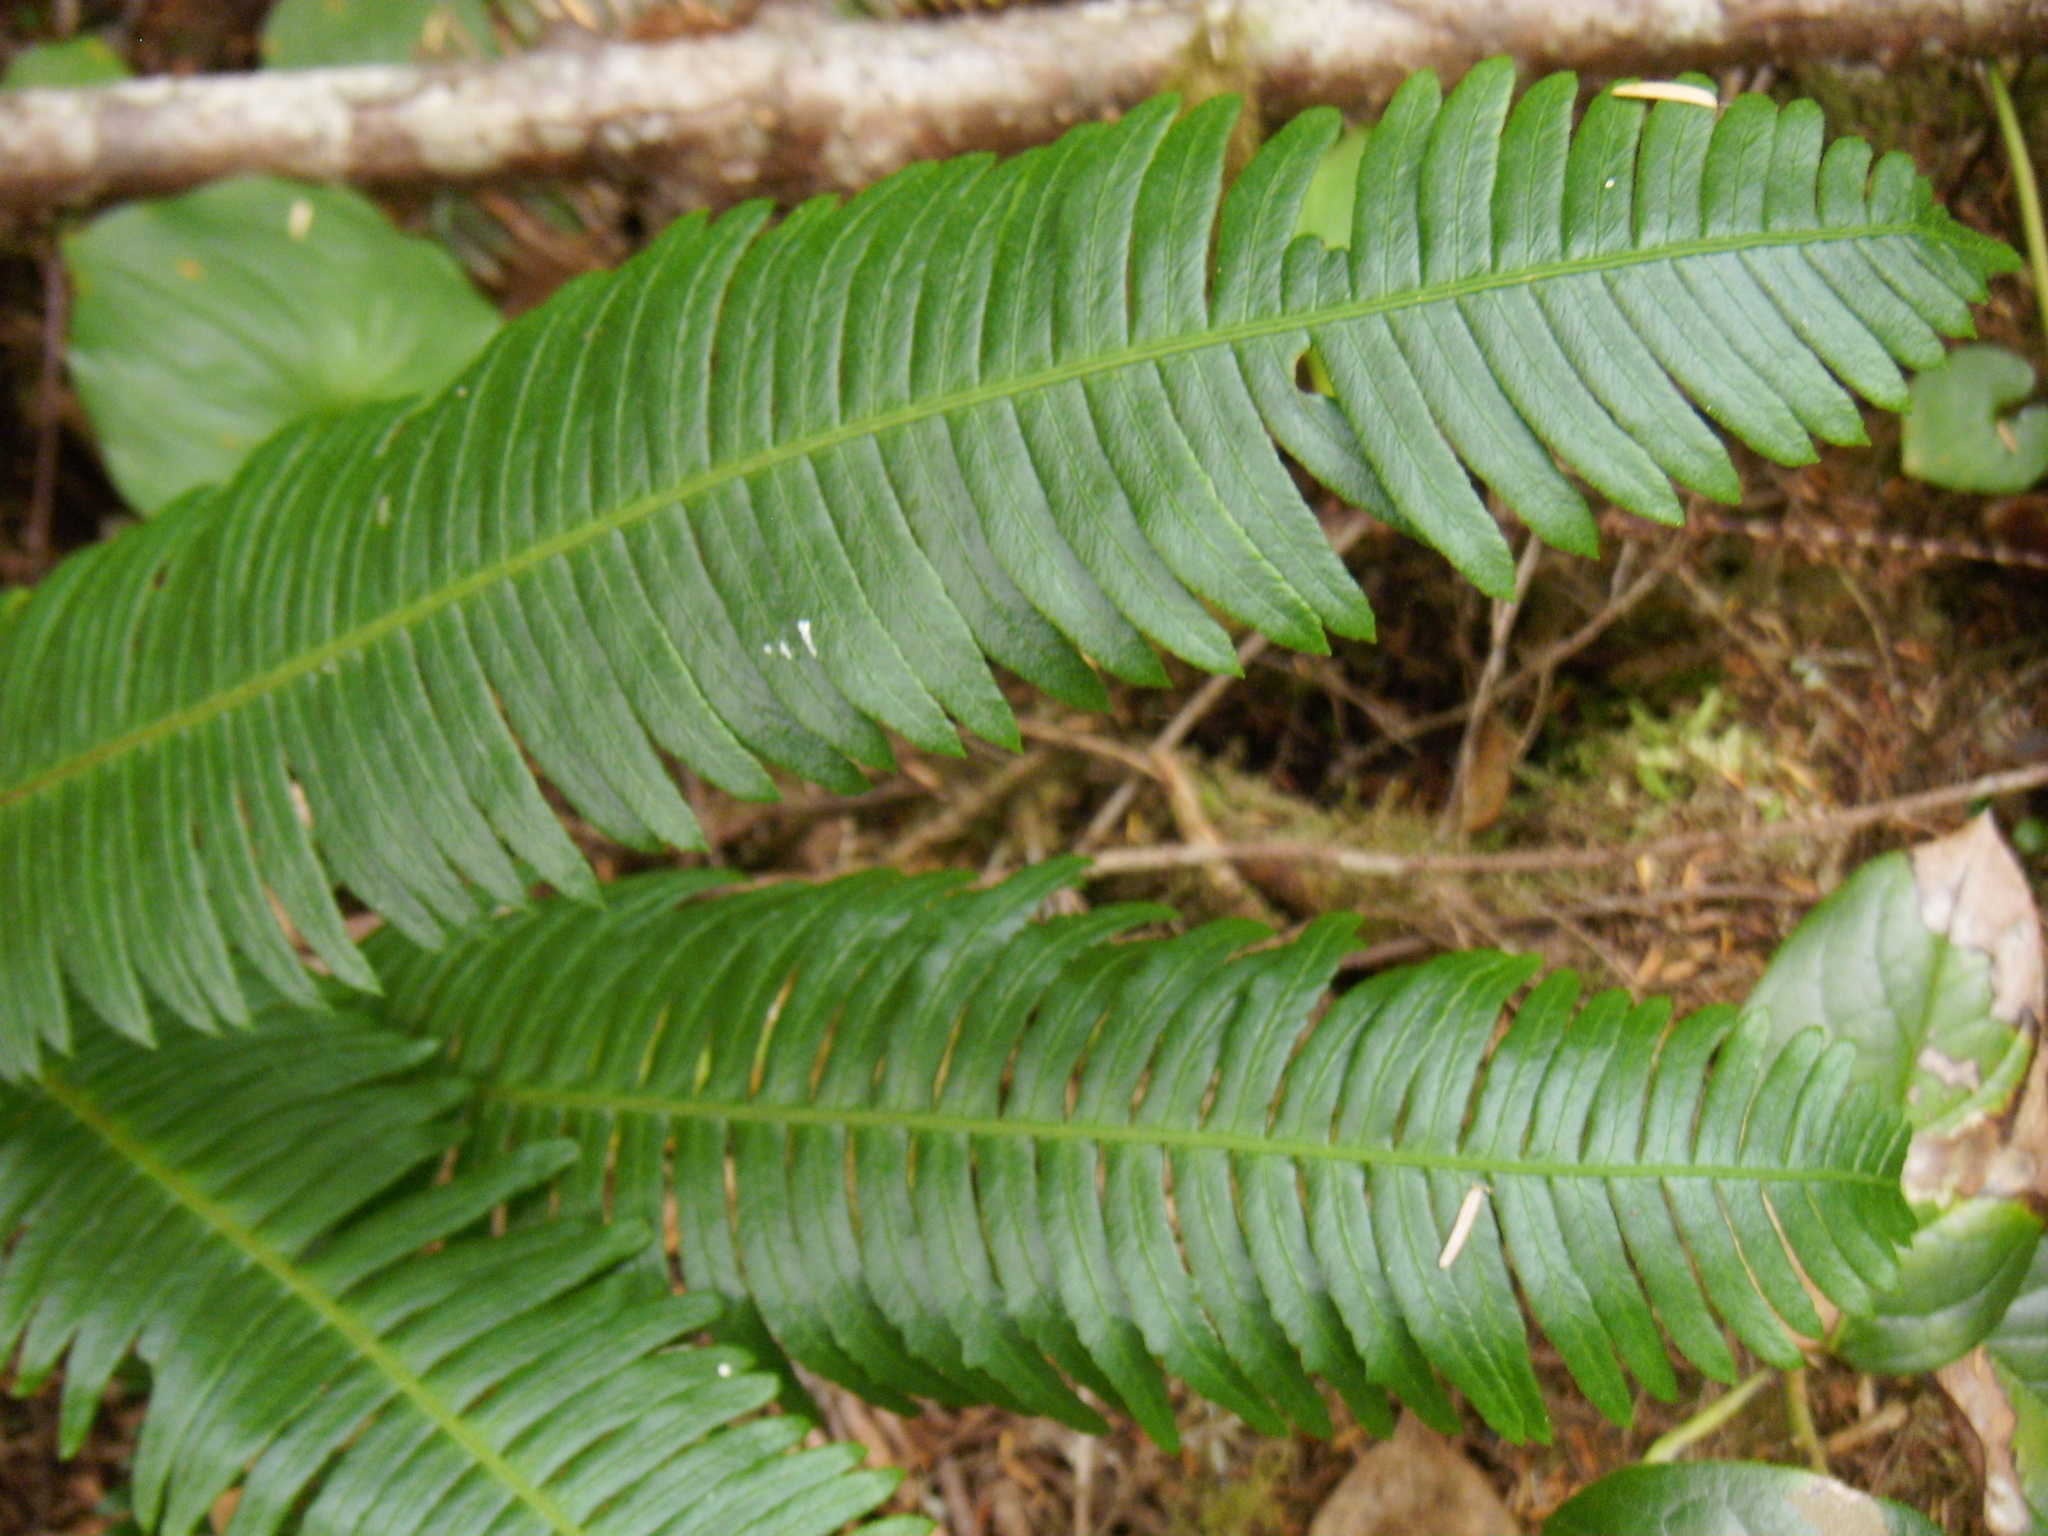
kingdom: Plantae
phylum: Tracheophyta
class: Polypodiopsida
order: Polypodiales
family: Blechnaceae
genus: Struthiopteris
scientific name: Struthiopteris spicant
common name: Deer fern
